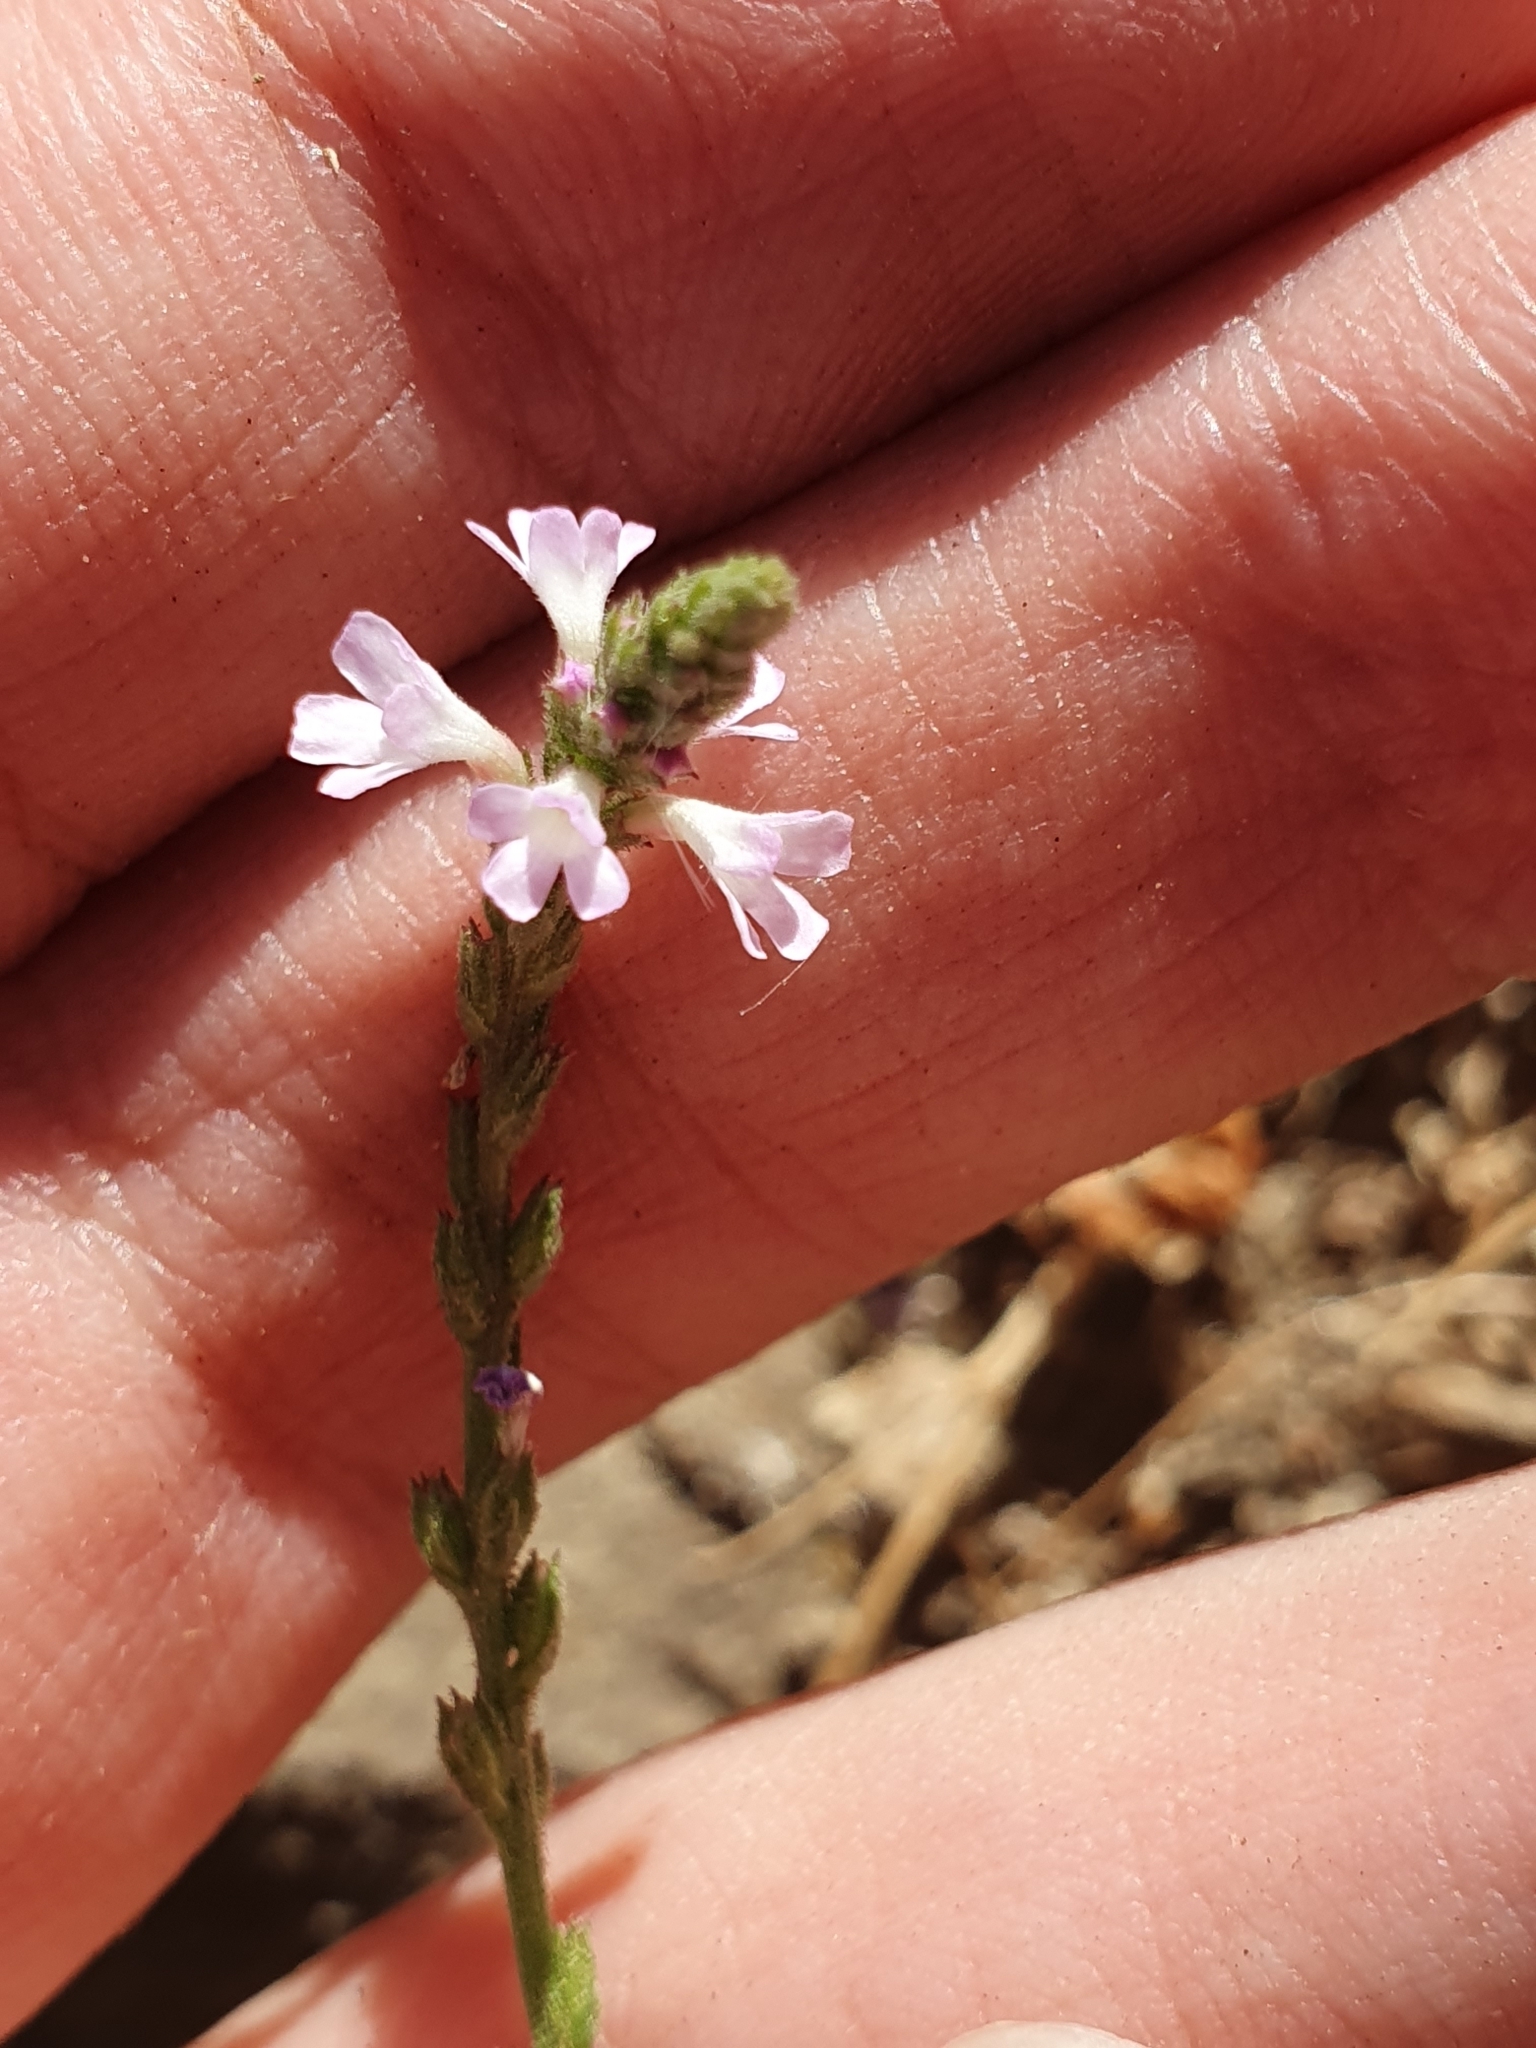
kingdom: Plantae
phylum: Tracheophyta
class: Magnoliopsida
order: Lamiales
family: Verbenaceae
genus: Verbena
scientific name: Verbena officinalis
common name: Vervain
